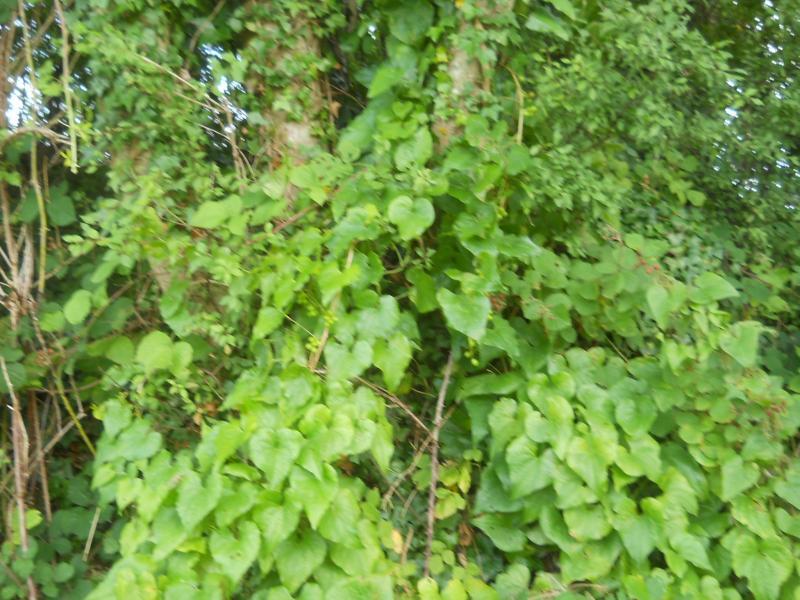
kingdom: Plantae
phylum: Tracheophyta
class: Liliopsida
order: Dioscoreales
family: Dioscoreaceae
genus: Dioscorea
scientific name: Dioscorea communis
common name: Black-bindweed
